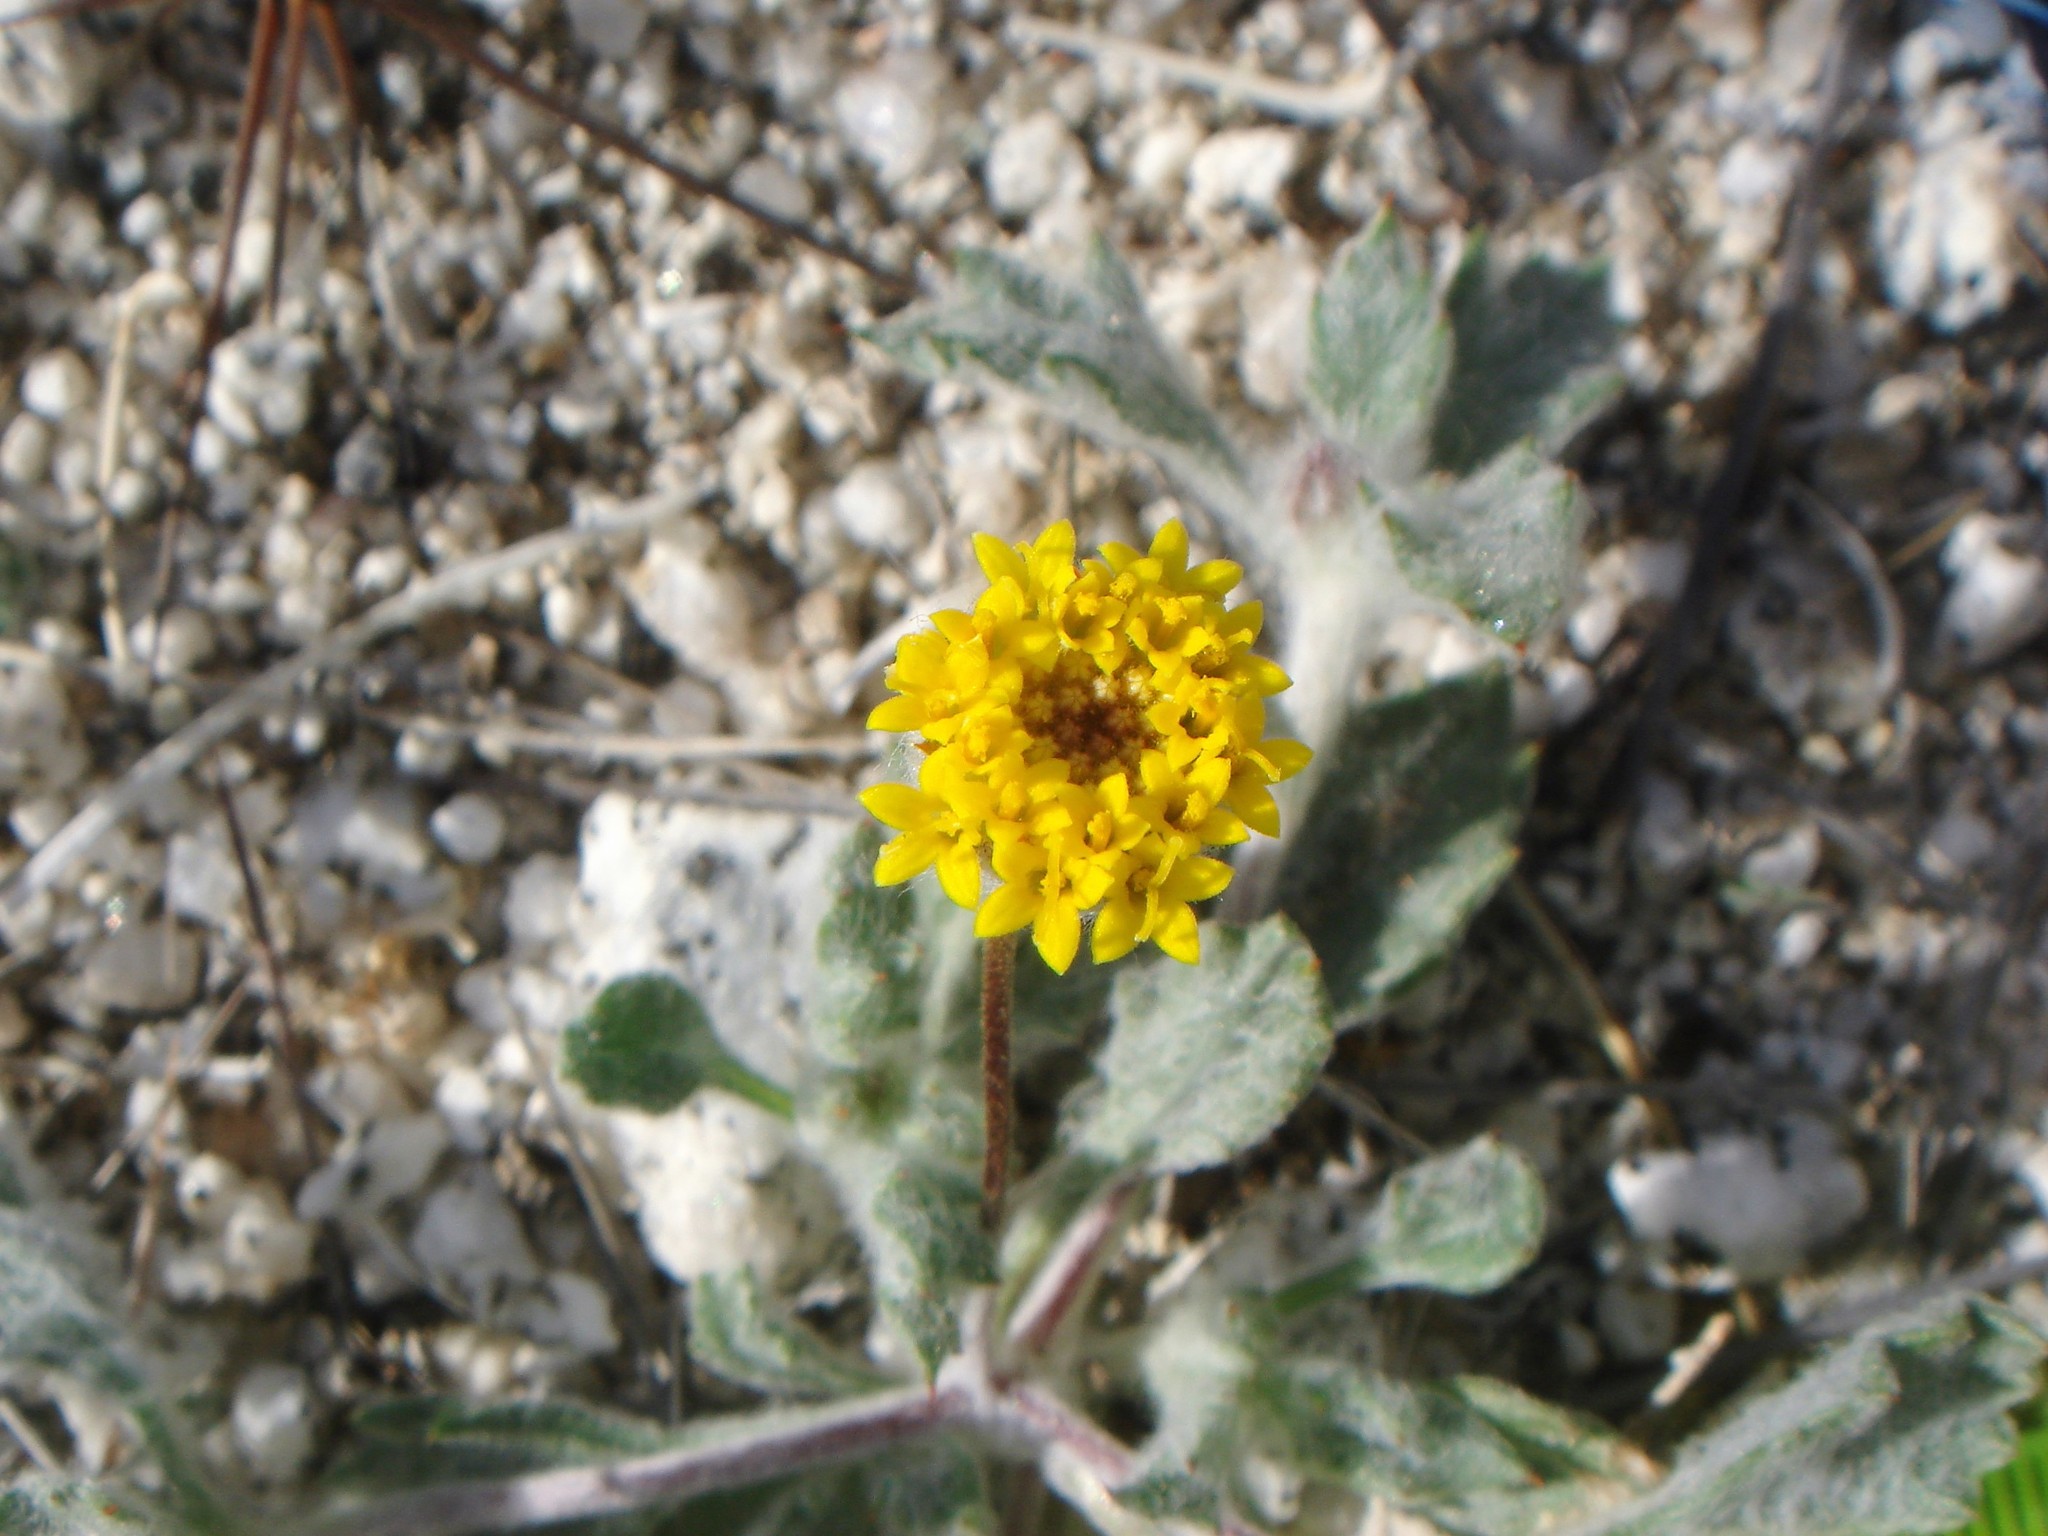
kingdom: Plantae
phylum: Tracheophyta
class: Magnoliopsida
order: Asterales
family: Asteraceae
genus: Trichoptilium
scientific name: Trichoptilium incisum
